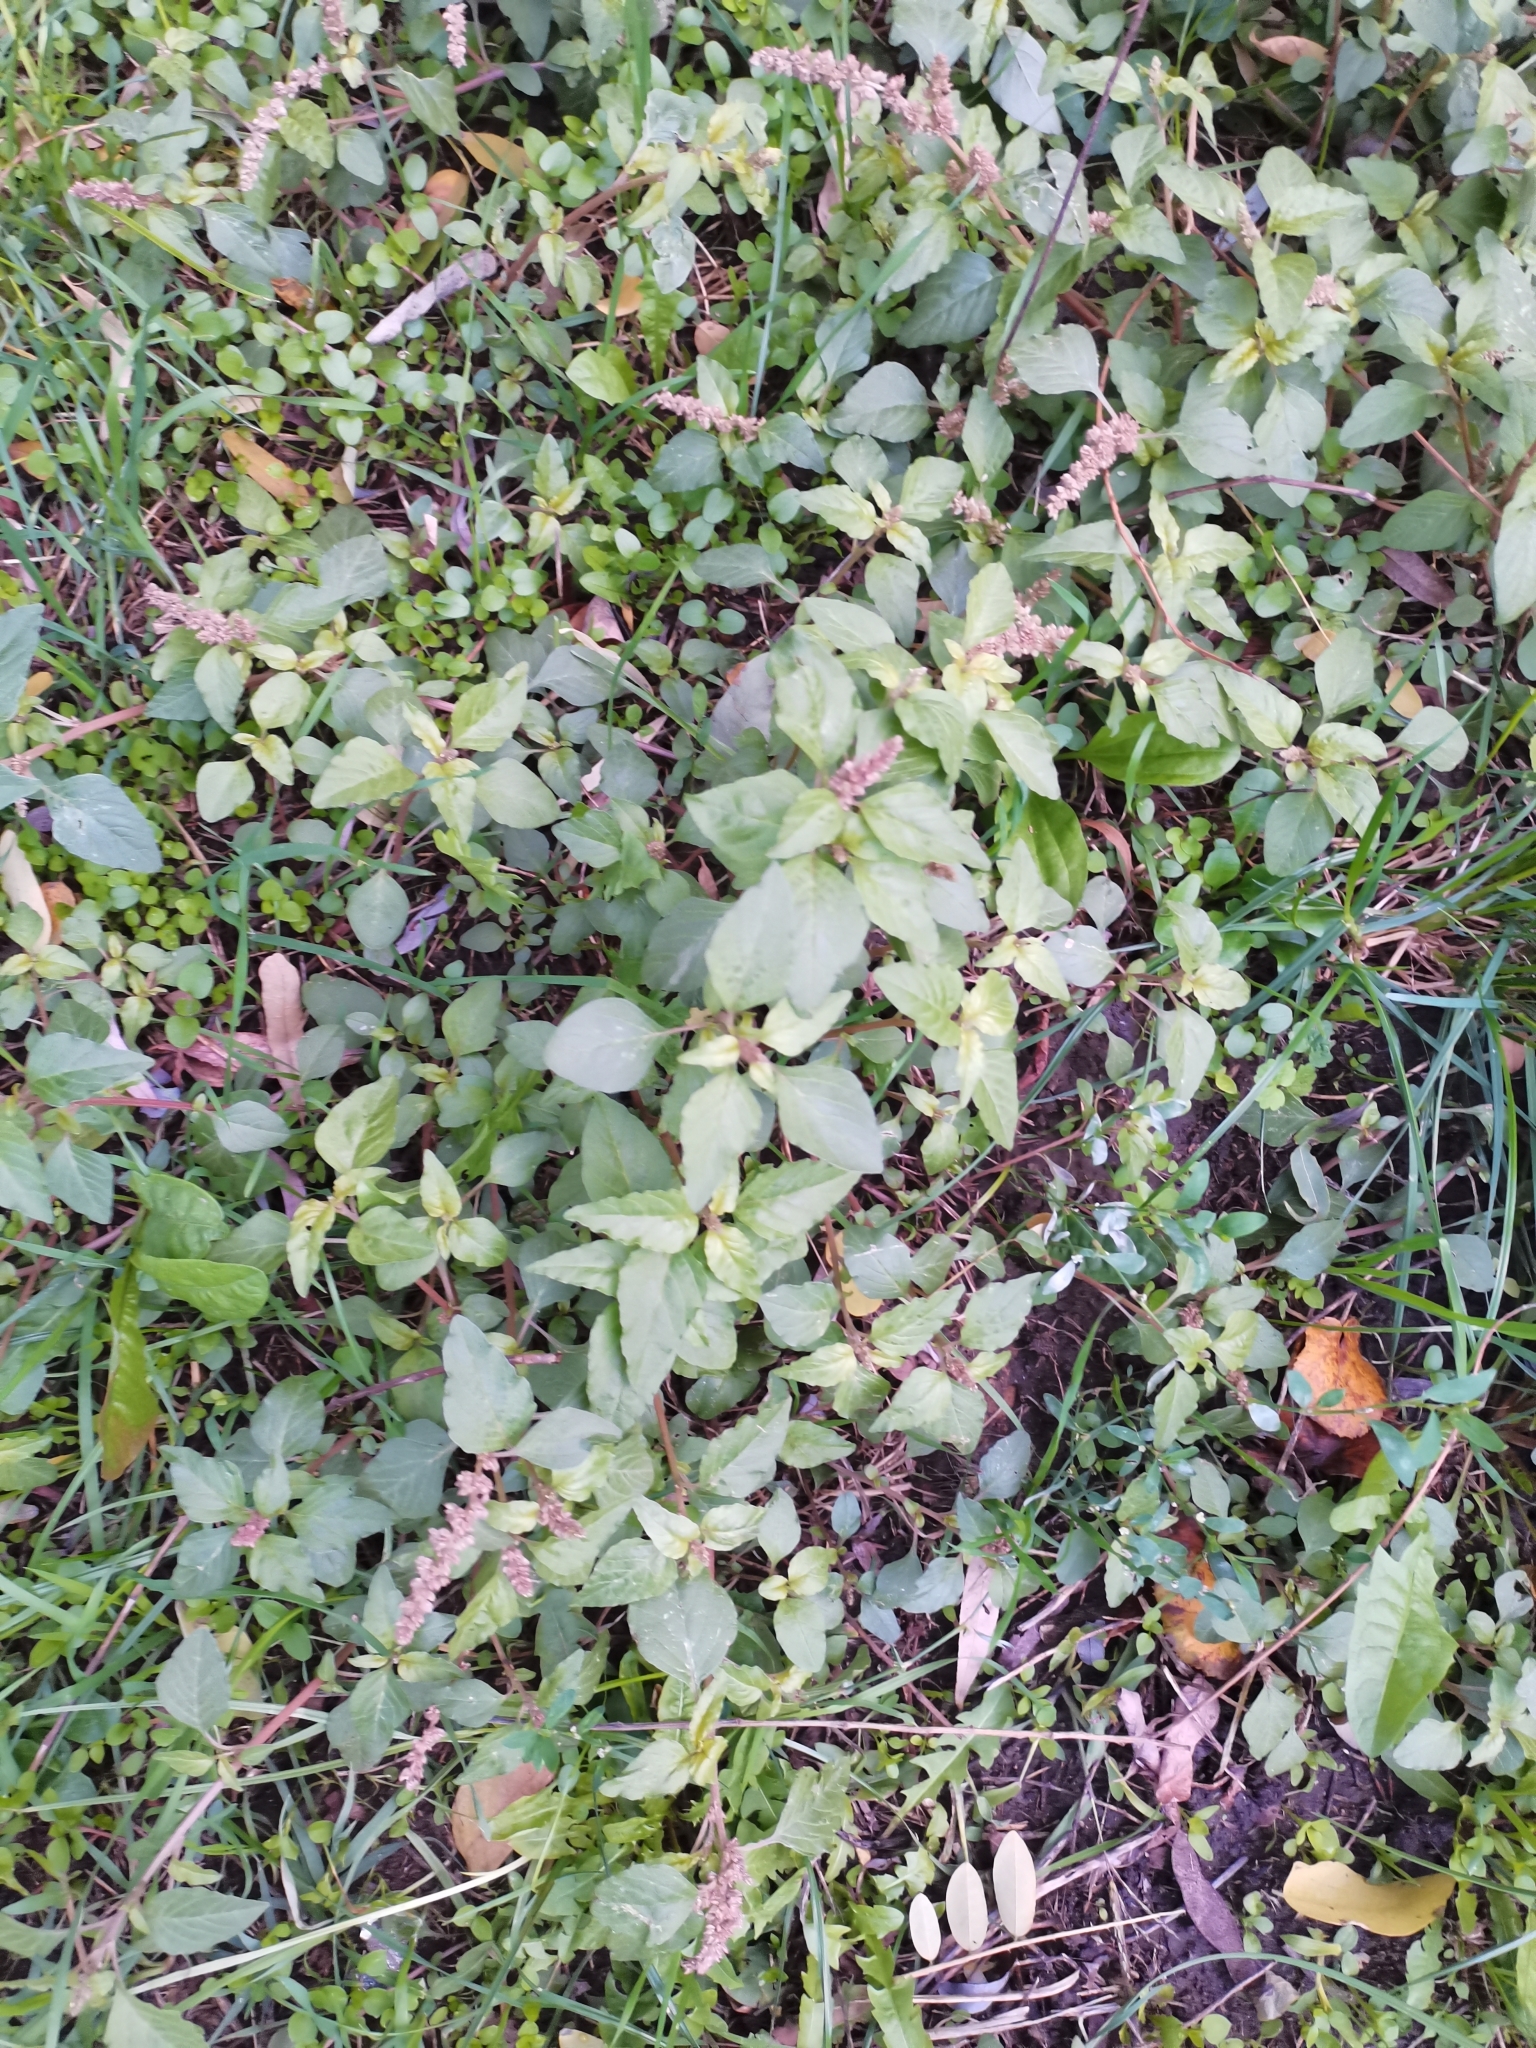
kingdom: Plantae
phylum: Tracheophyta
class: Magnoliopsida
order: Caryophyllales
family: Amaranthaceae
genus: Amaranthus
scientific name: Amaranthus deflexus
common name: Perennial pigweed
